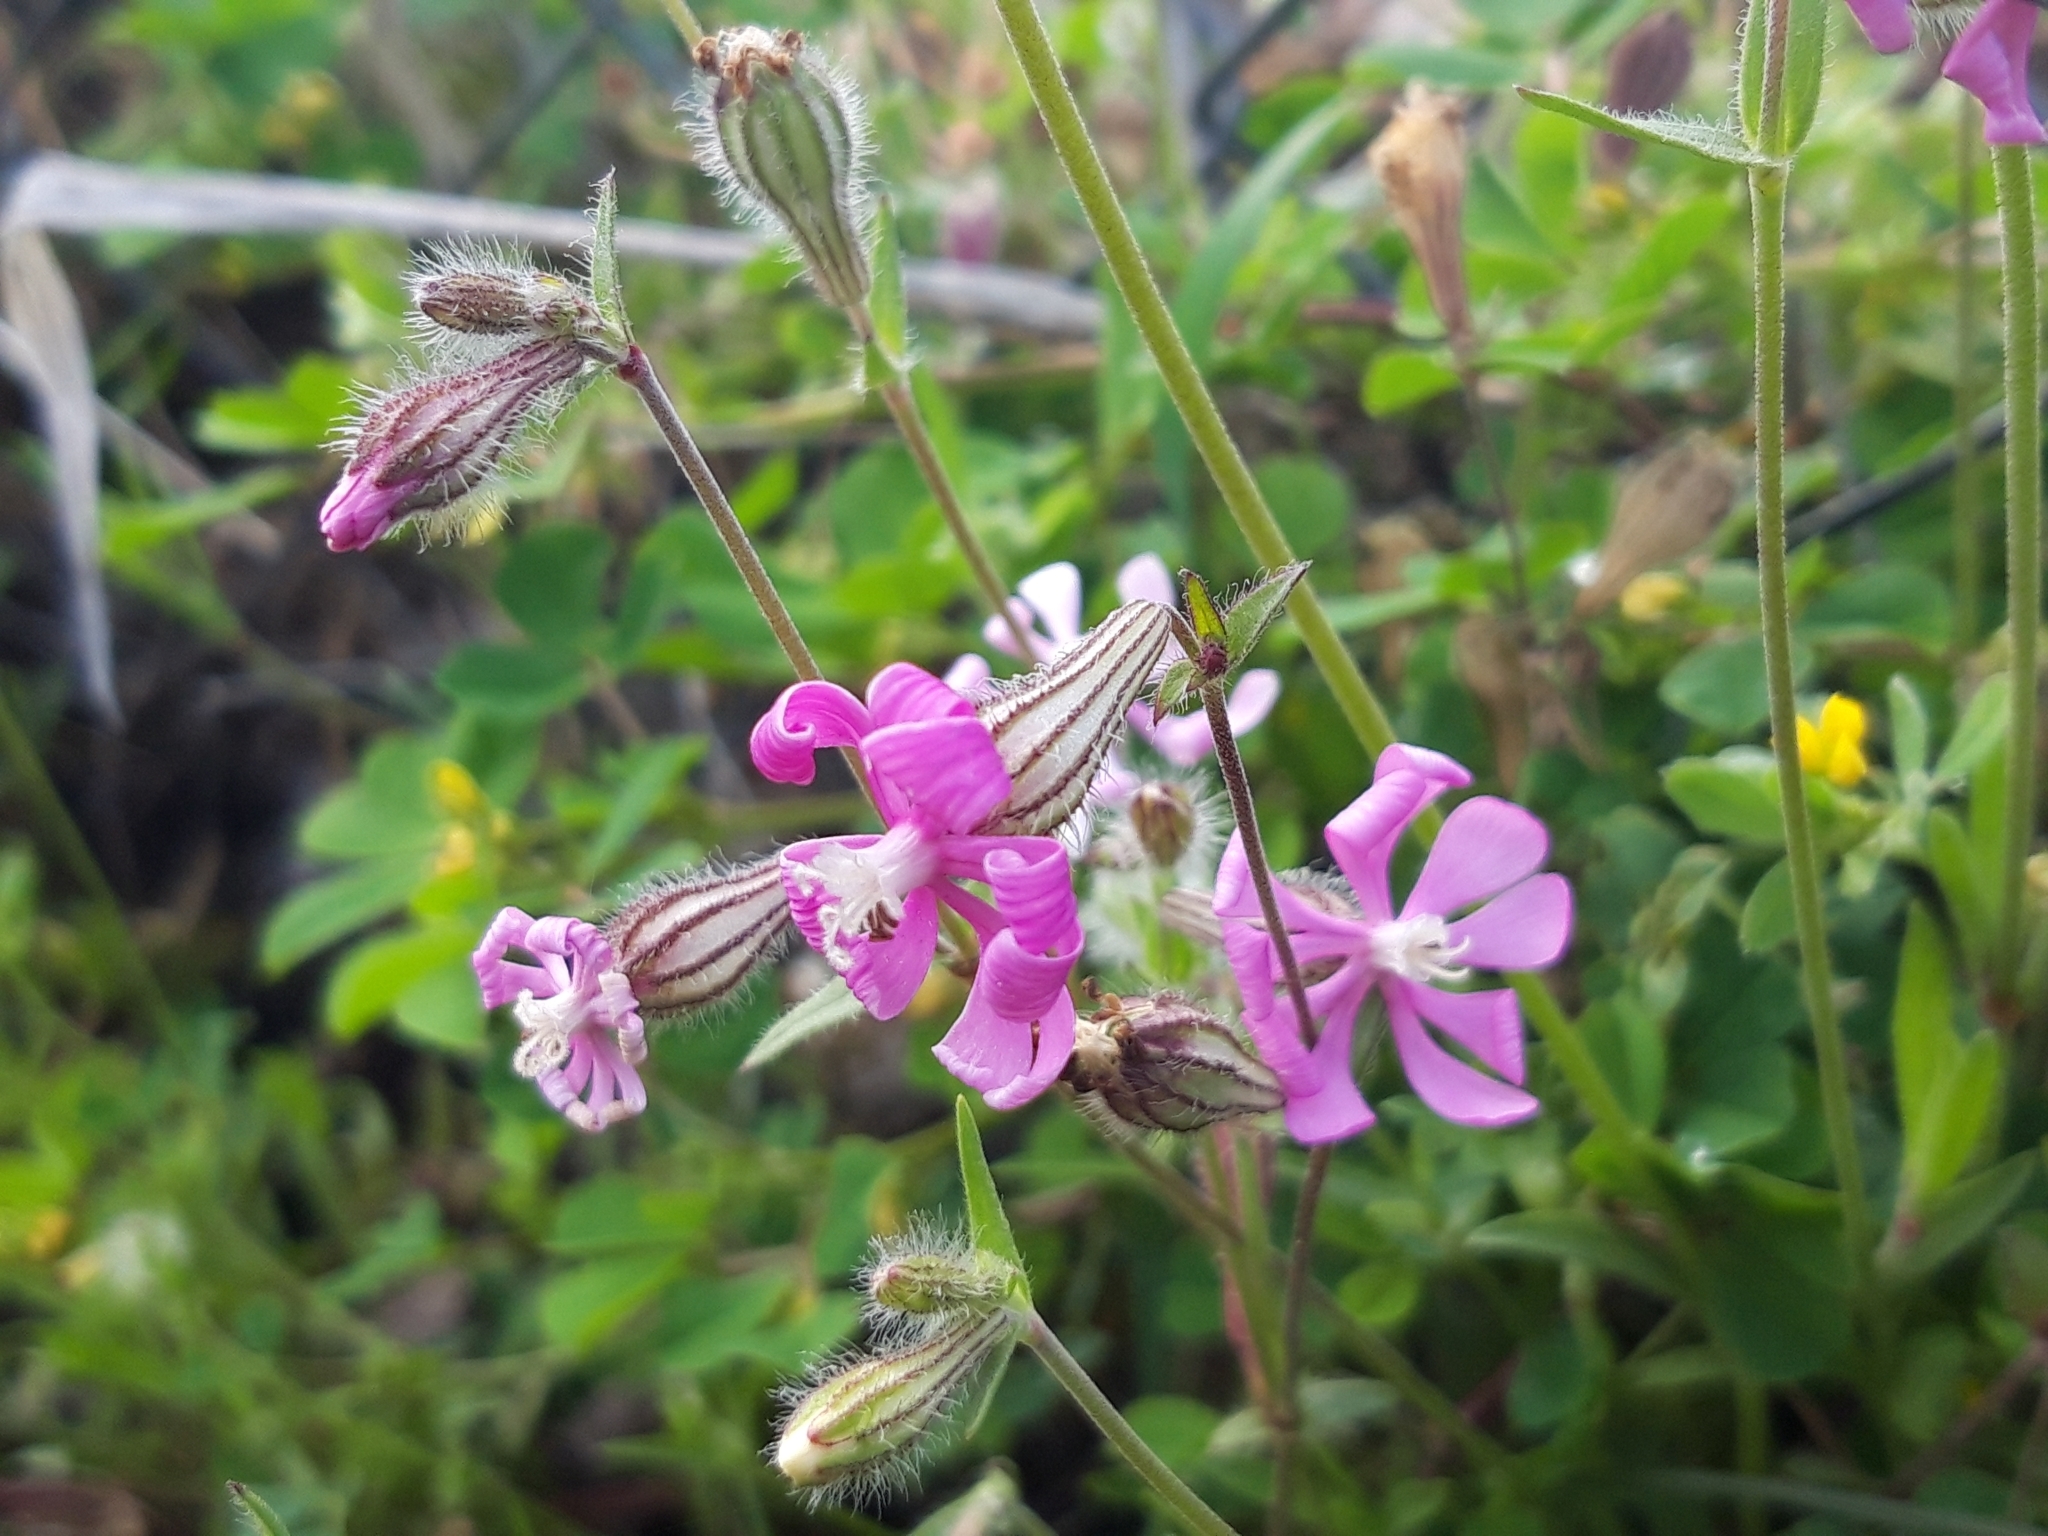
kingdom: Plantae
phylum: Tracheophyta
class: Magnoliopsida
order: Caryophyllales
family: Caryophyllaceae
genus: Silene
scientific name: Silene colorata
